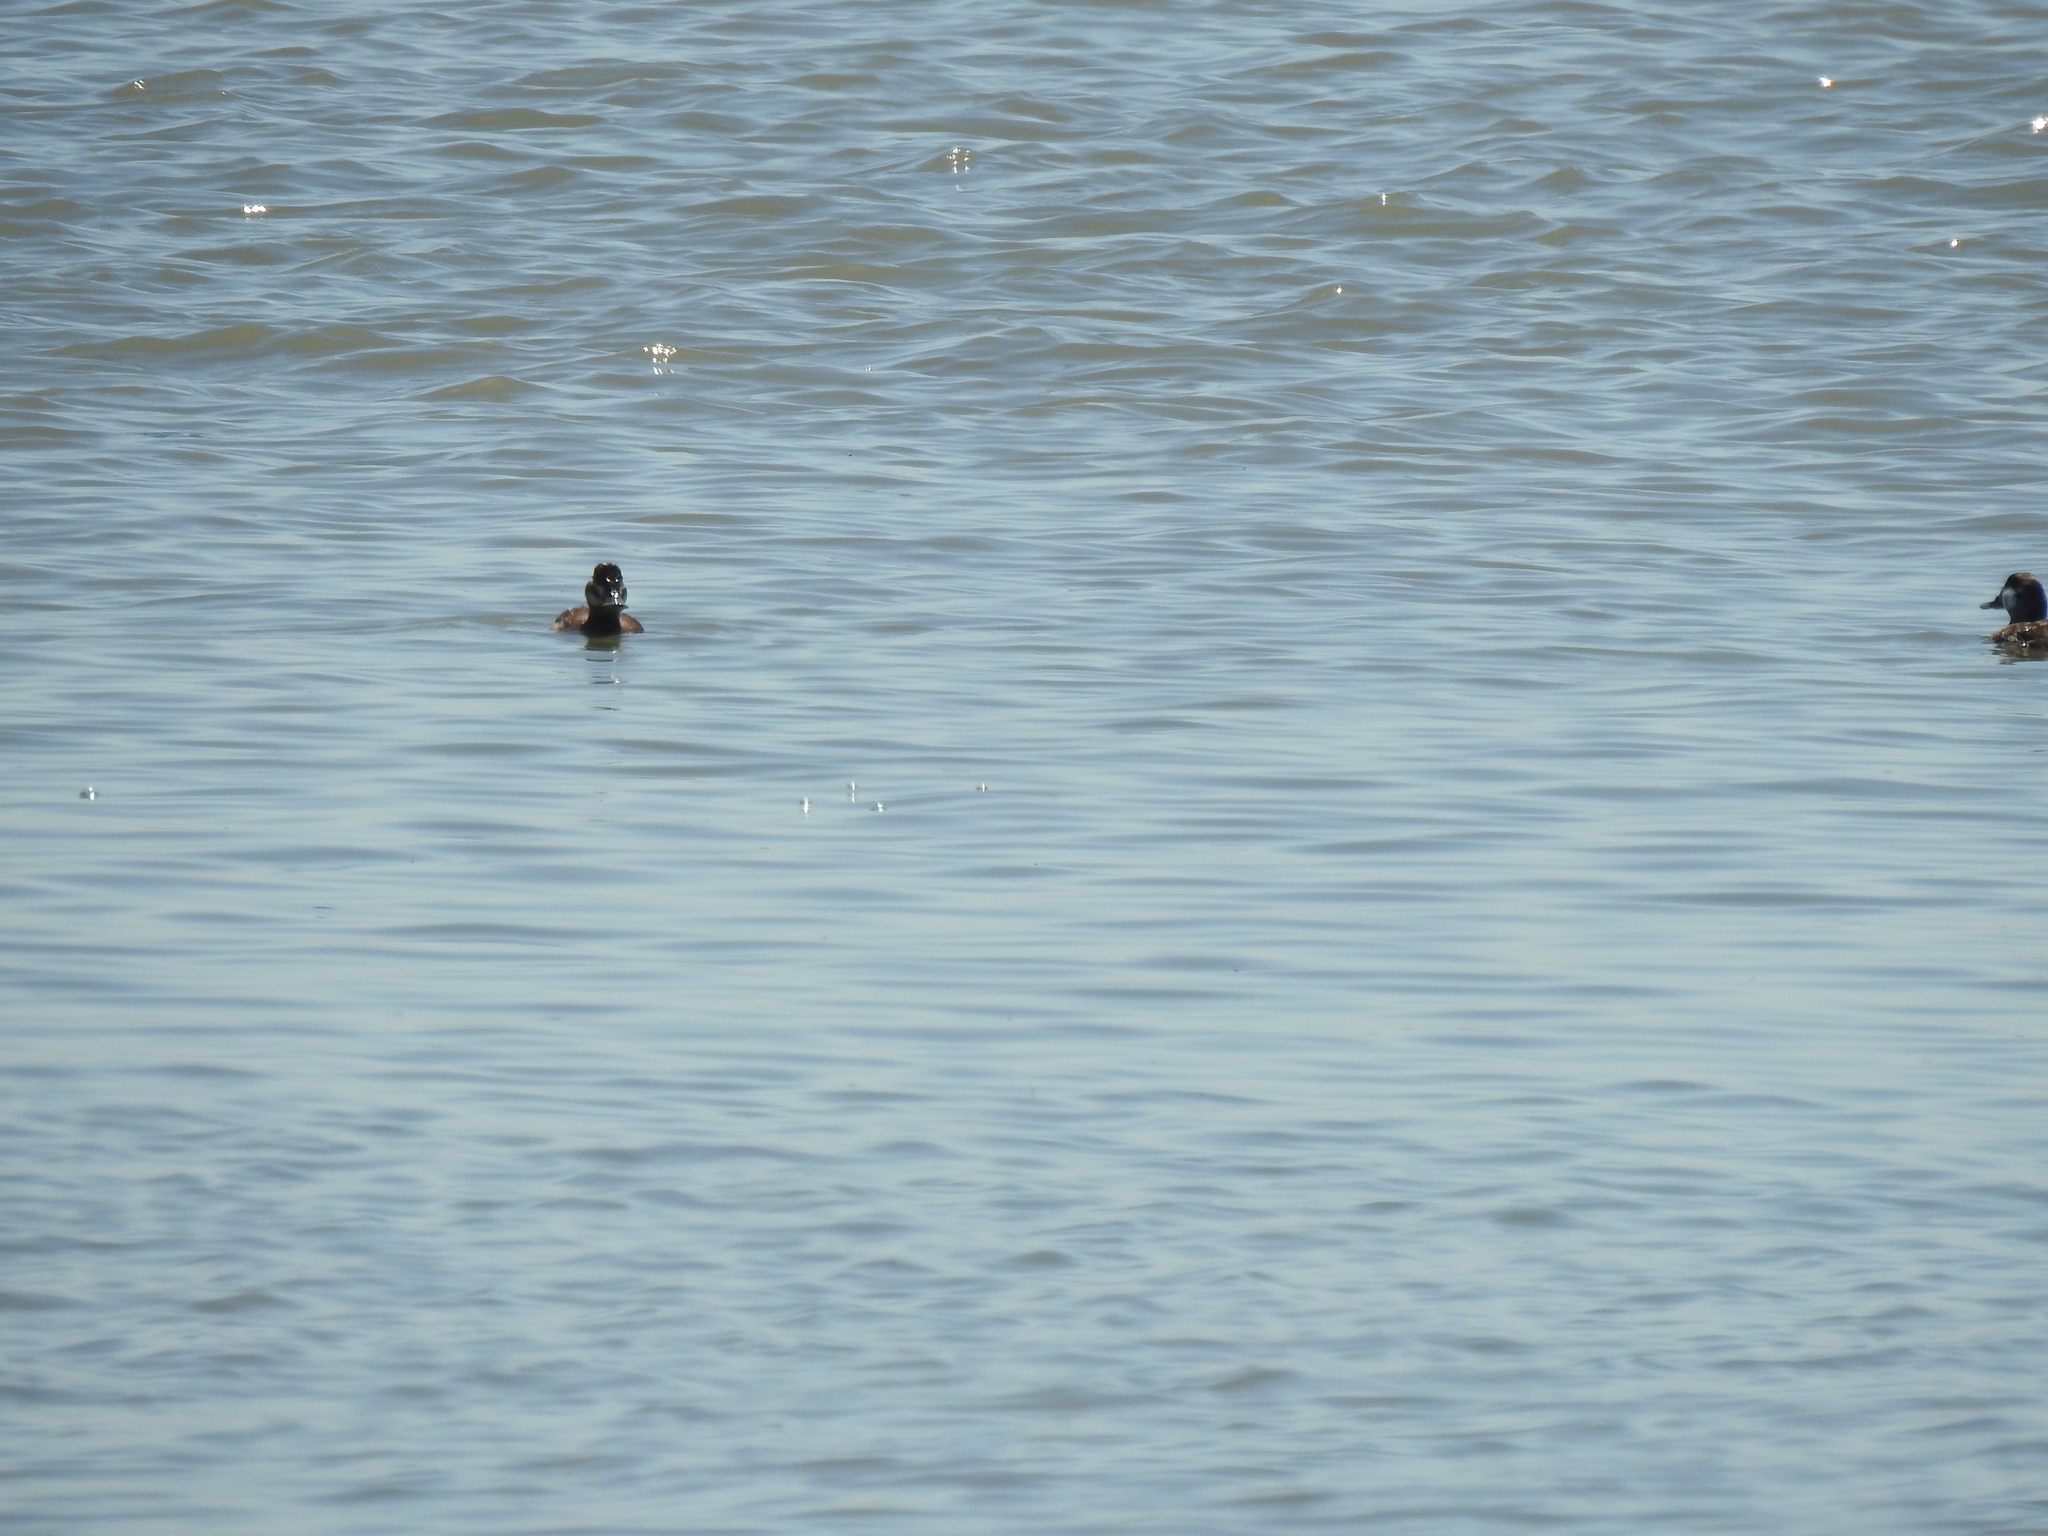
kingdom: Animalia
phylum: Chordata
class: Aves
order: Anseriformes
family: Anatidae
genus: Oxyura
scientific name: Oxyura jamaicensis
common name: Ruddy duck
